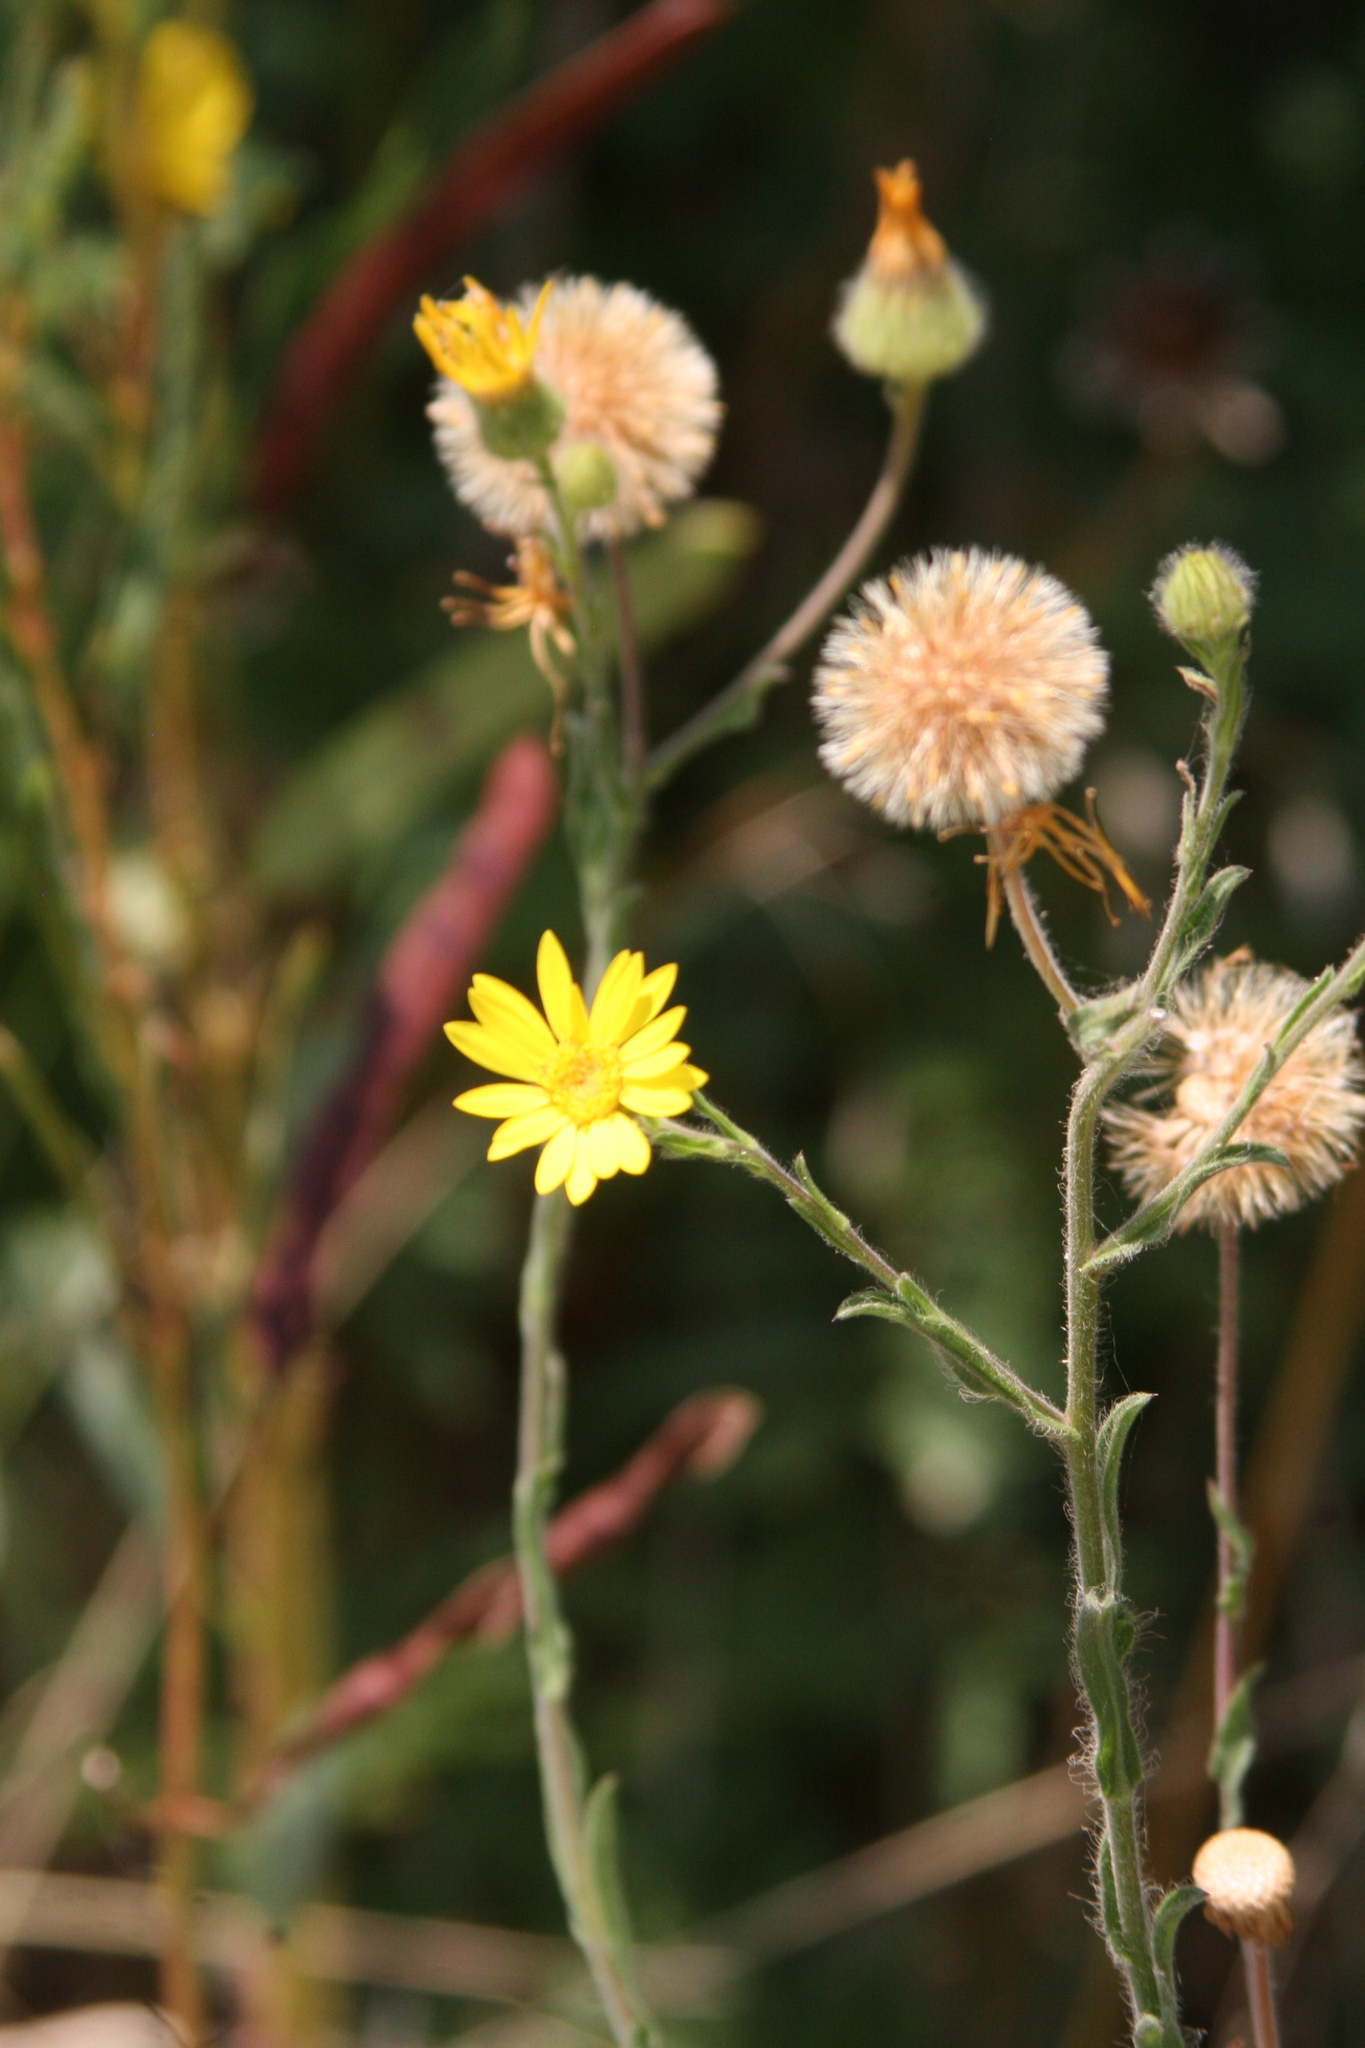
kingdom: Plantae
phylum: Tracheophyta
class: Magnoliopsida
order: Asterales
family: Asteraceae
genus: Bradburia
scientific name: Bradburia pilosa
